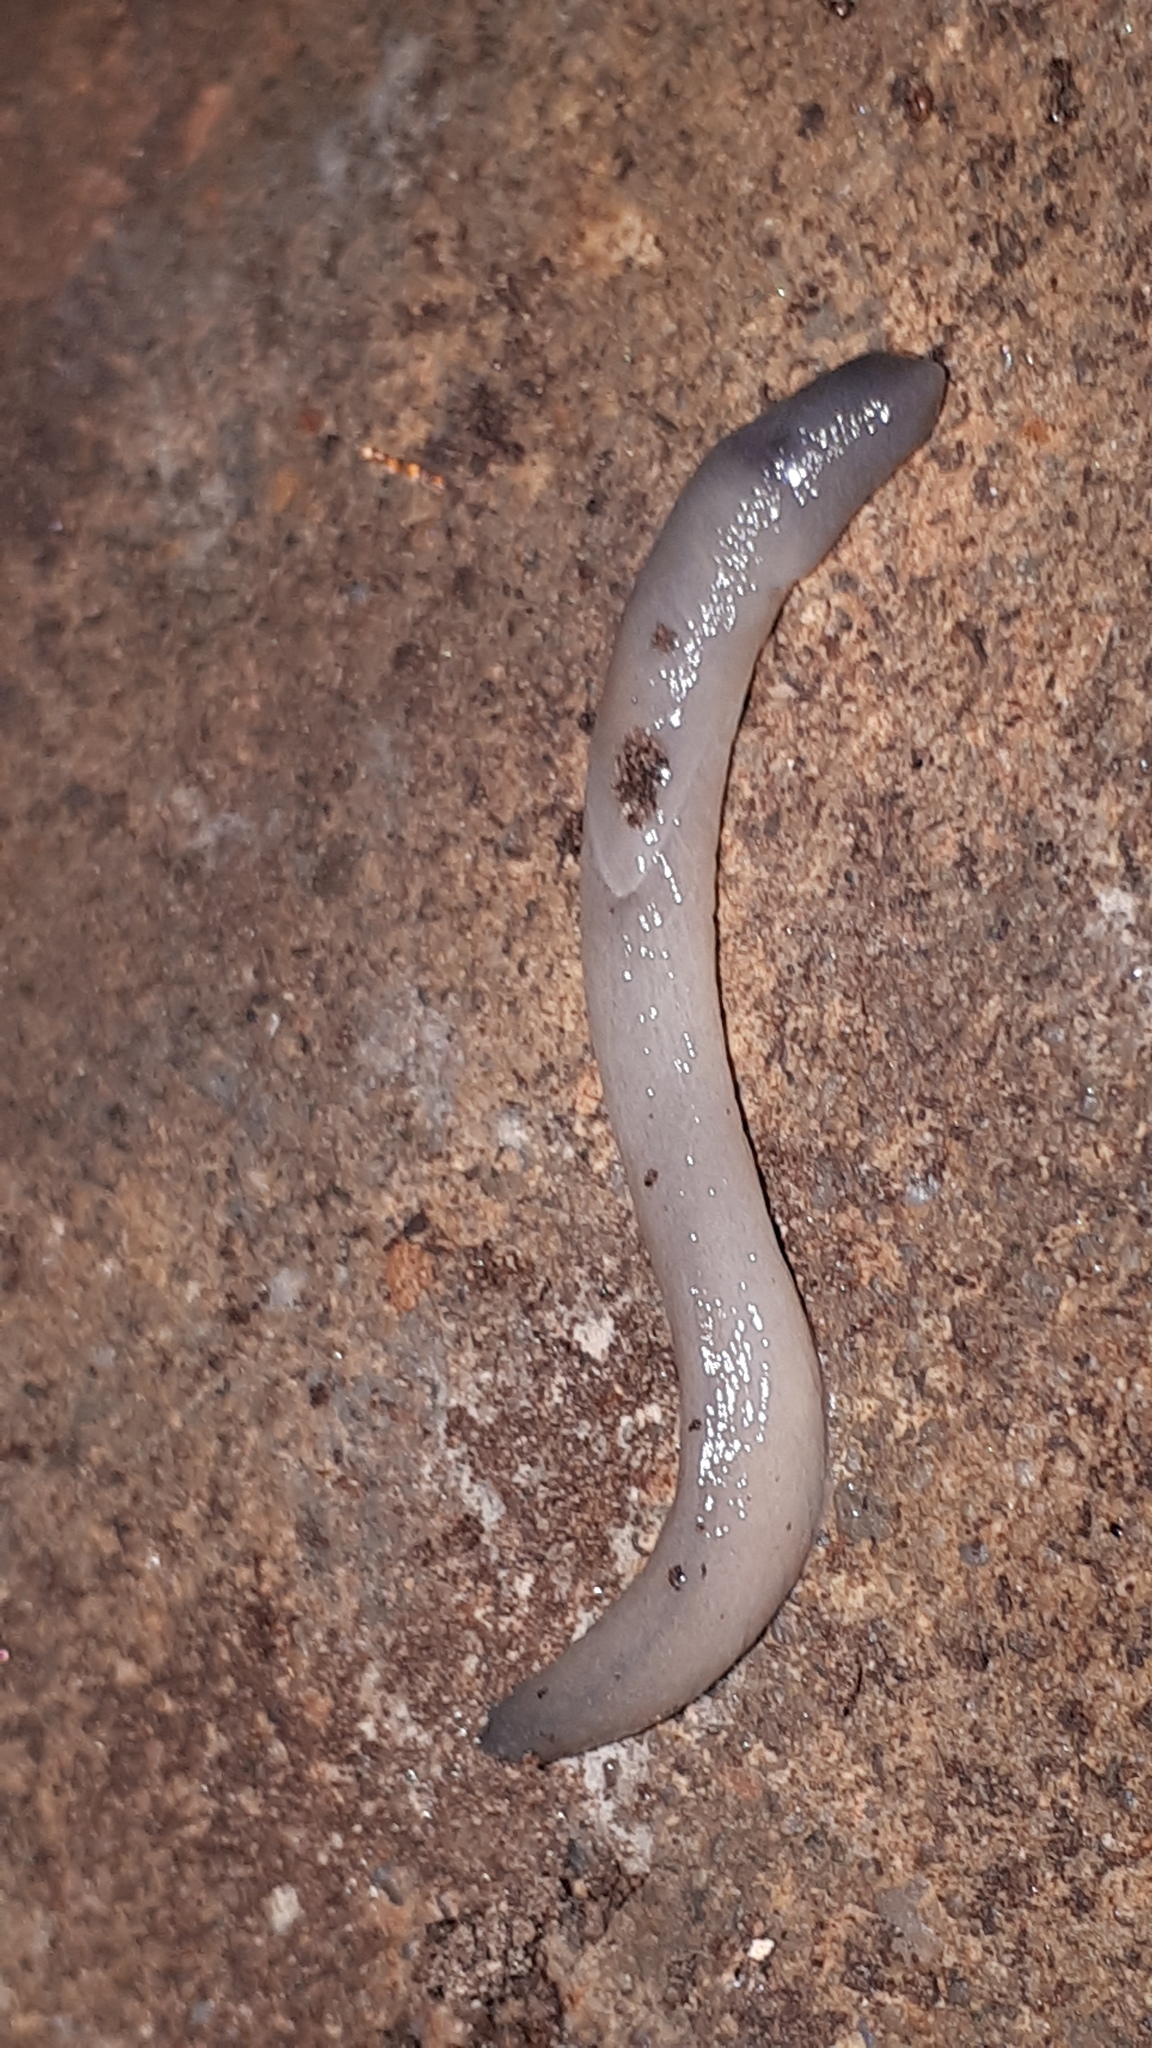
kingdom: Animalia
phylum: Mollusca
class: Gastropoda
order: Stylommatophora
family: Boettgerillidae
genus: Boettgerilla
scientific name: Boettgerilla pallens
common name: Worm slug
